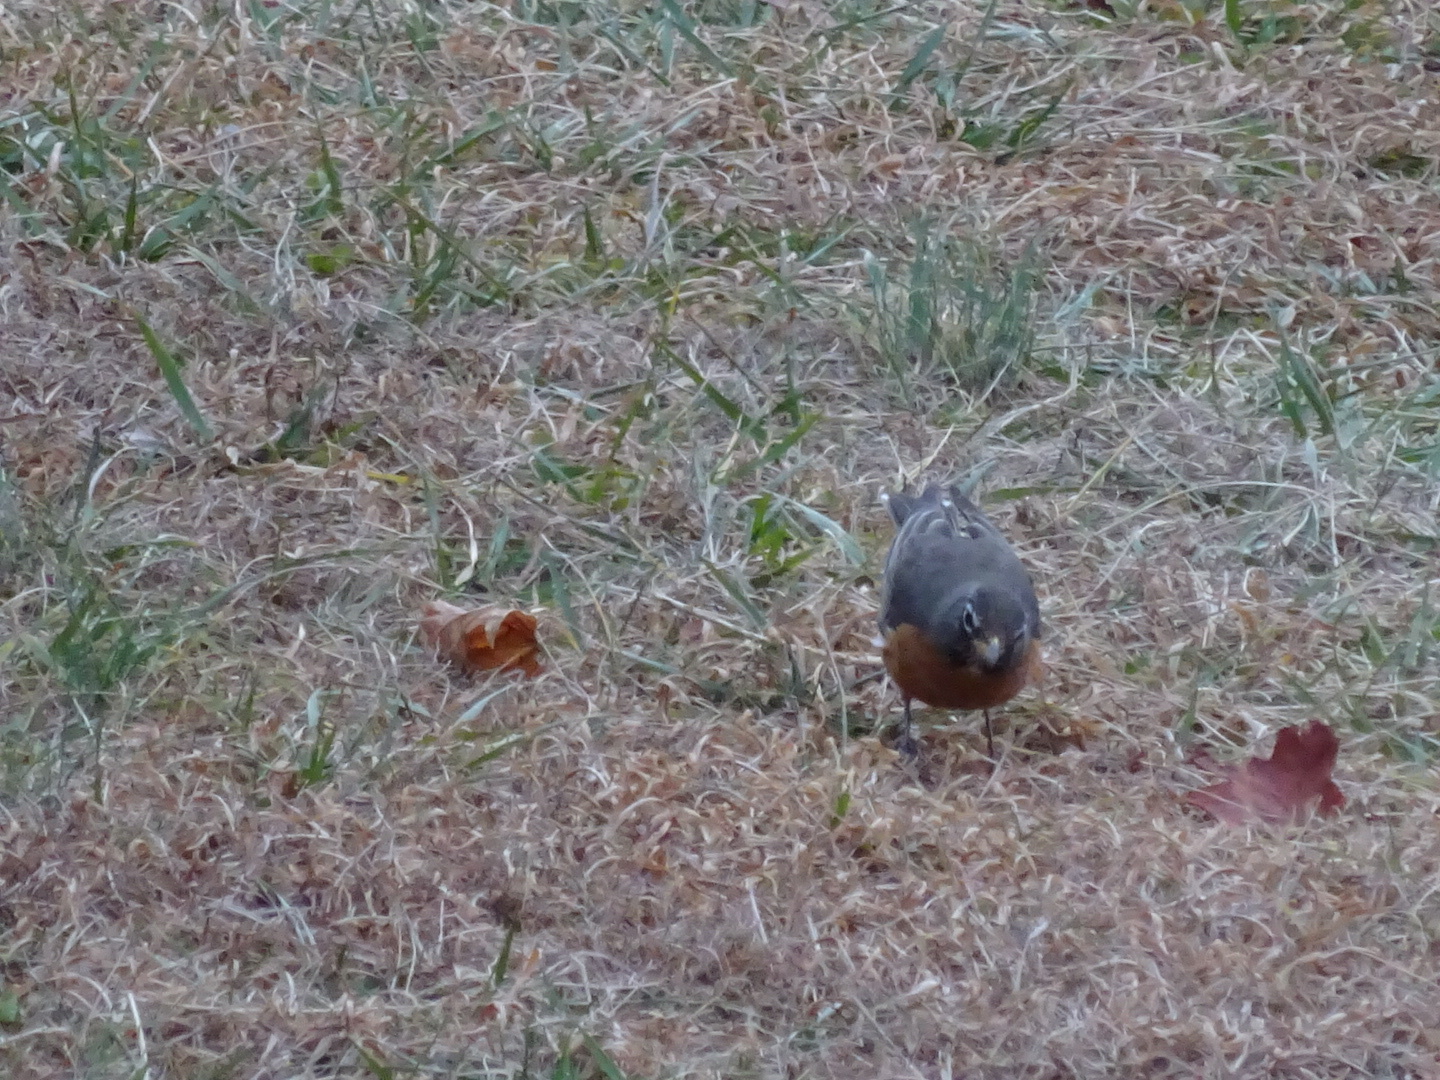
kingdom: Animalia
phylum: Chordata
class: Aves
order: Passeriformes
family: Turdidae
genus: Turdus
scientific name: Turdus migratorius
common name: American robin
